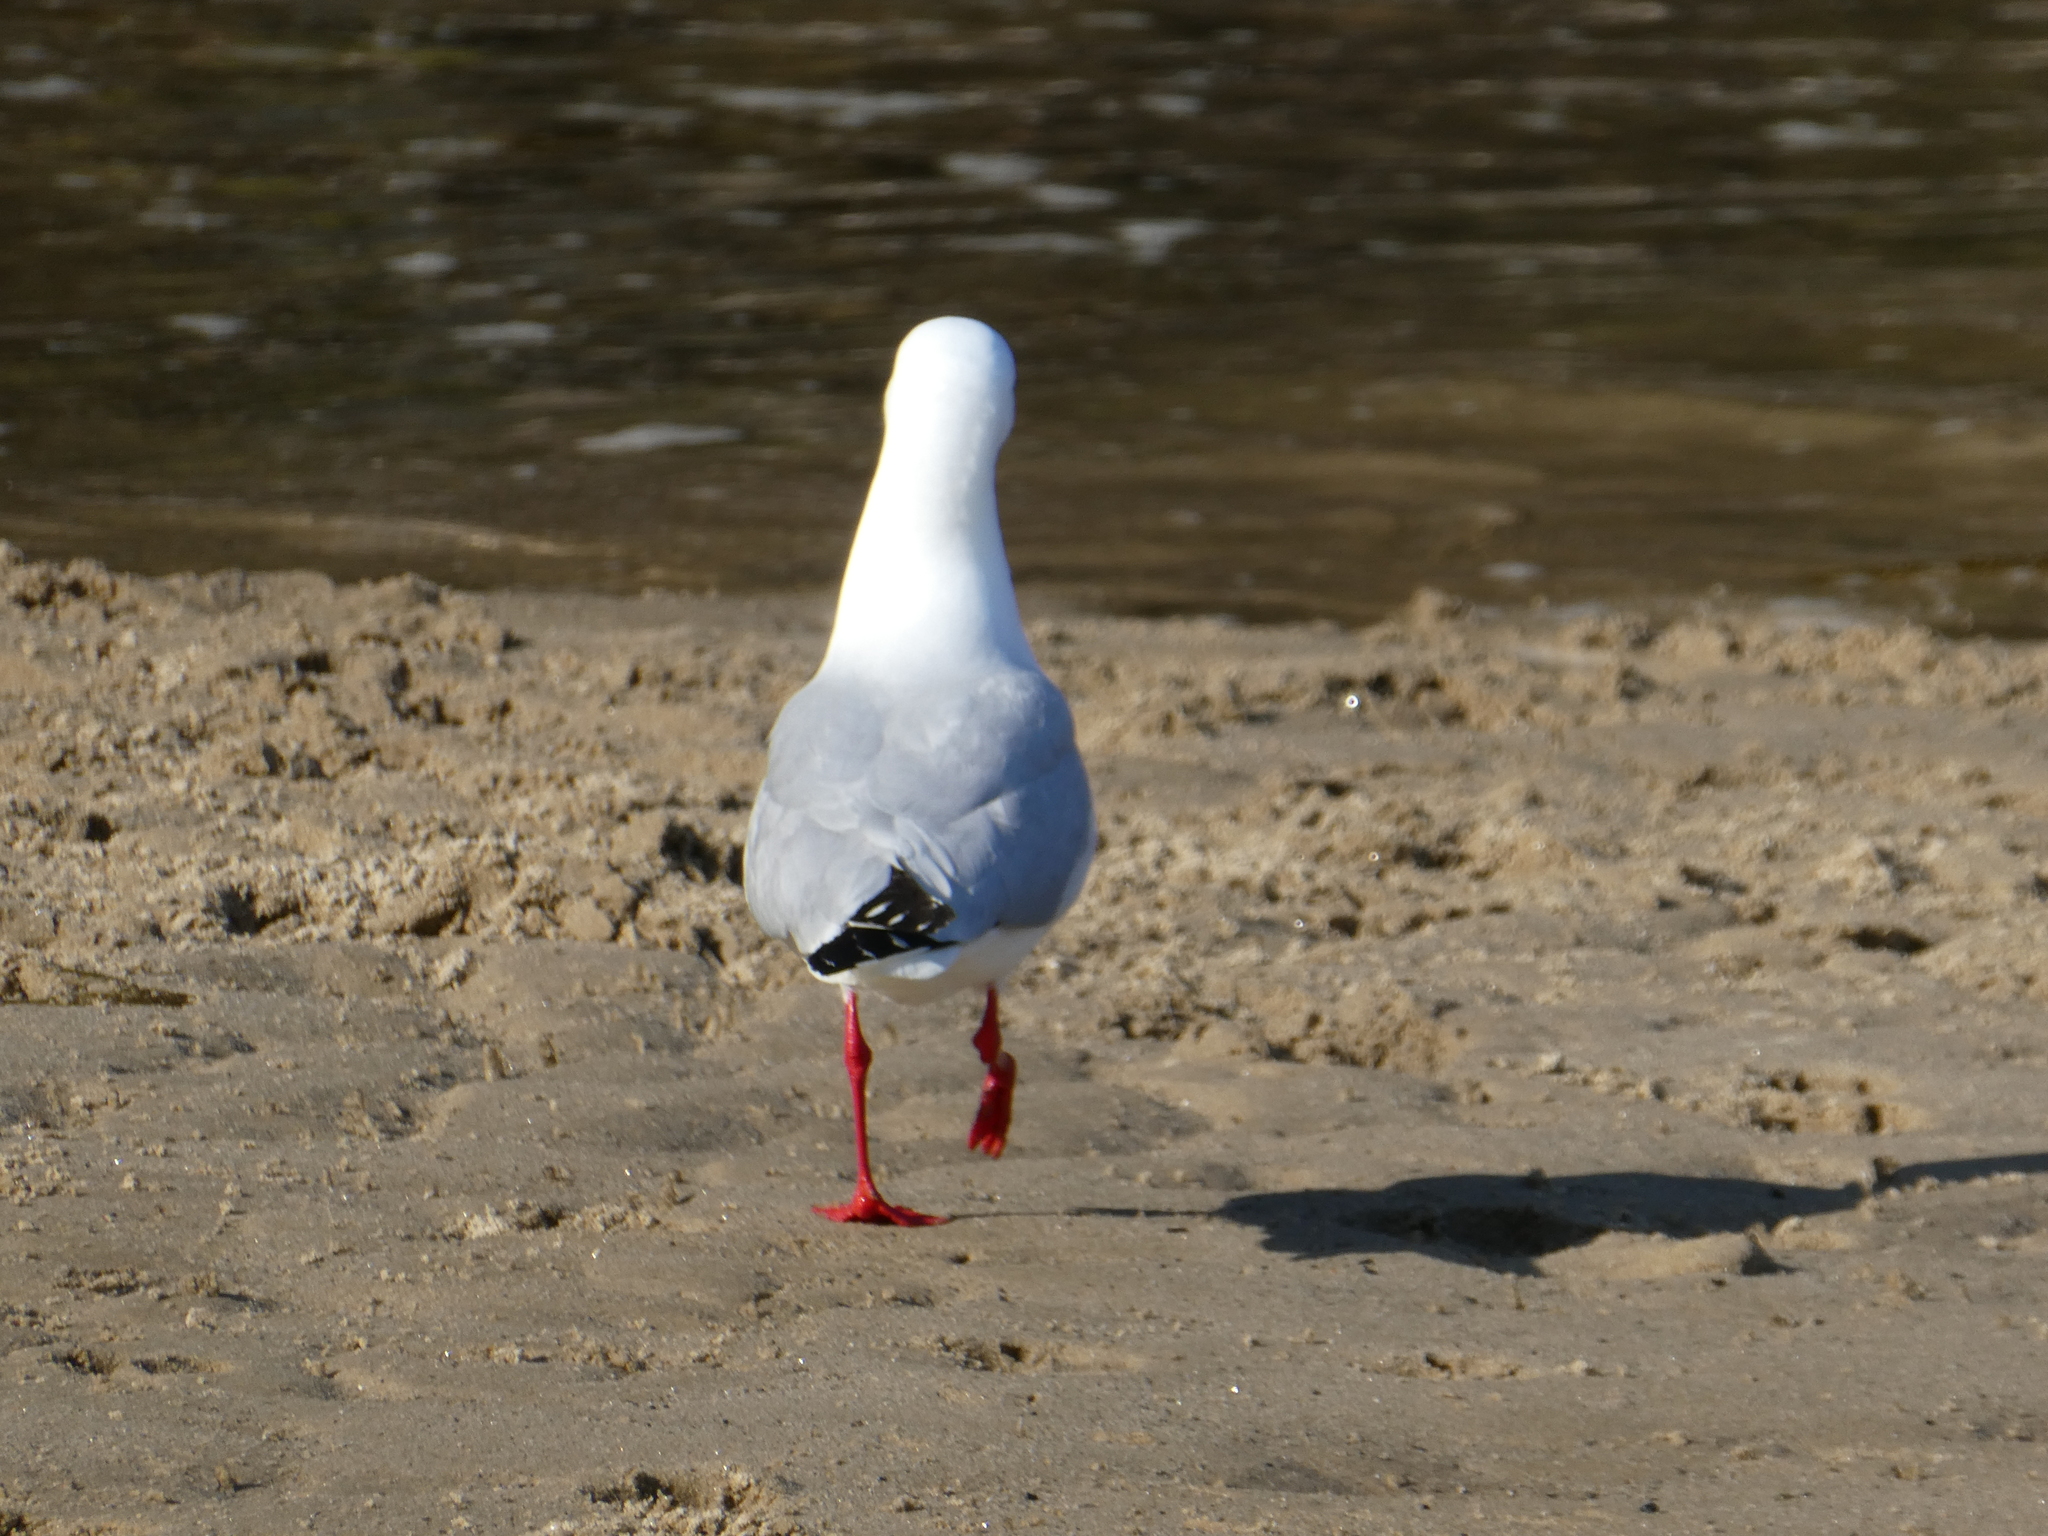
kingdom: Animalia
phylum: Chordata
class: Aves
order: Charadriiformes
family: Laridae
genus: Chroicocephalus
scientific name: Chroicocephalus novaehollandiae
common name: Silver gull
